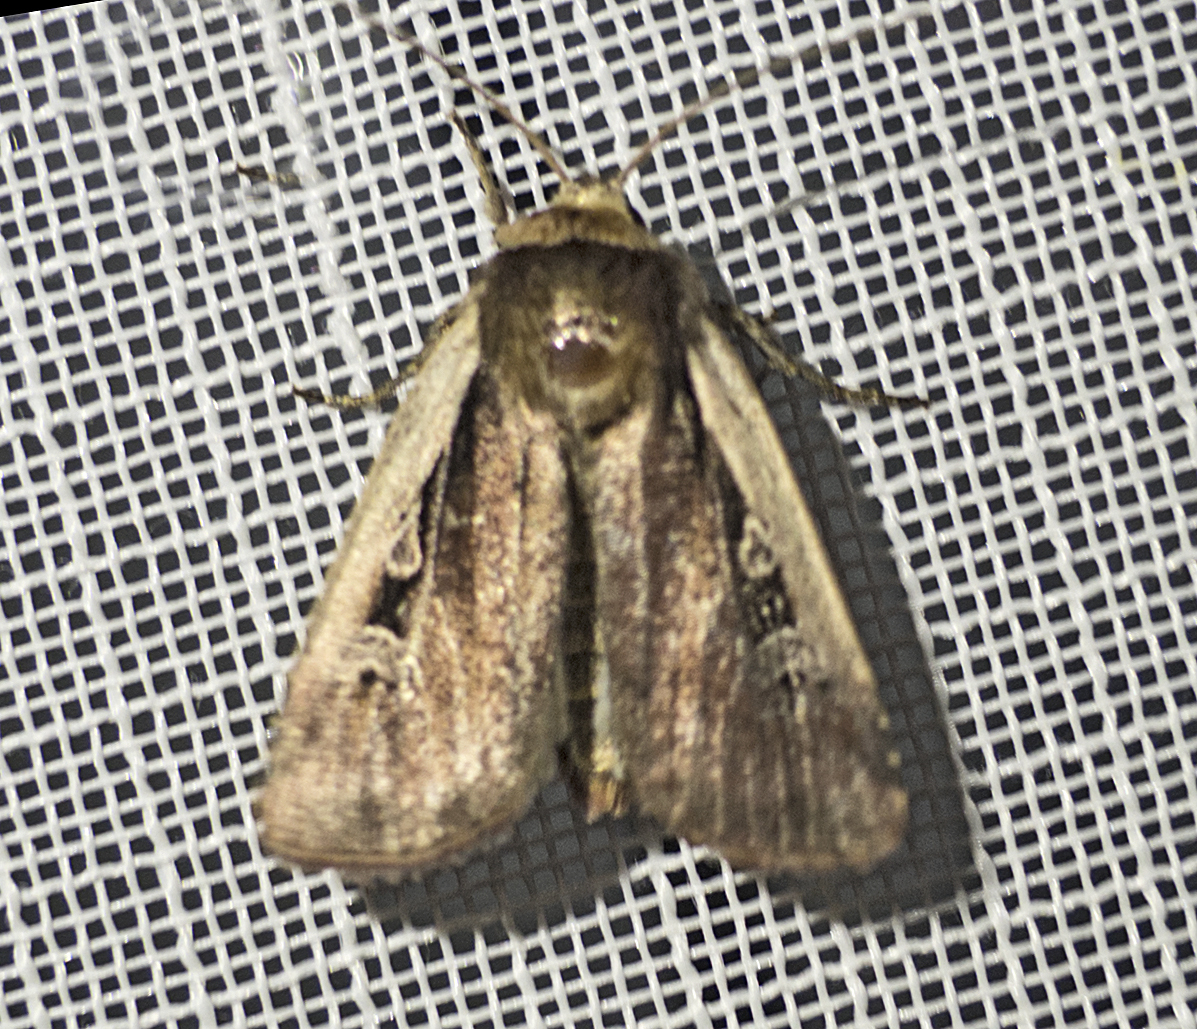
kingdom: Animalia
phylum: Arthropoda
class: Insecta
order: Lepidoptera
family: Noctuidae
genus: Ochropleura
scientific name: Ochropleura plecta
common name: Flame shoulder
